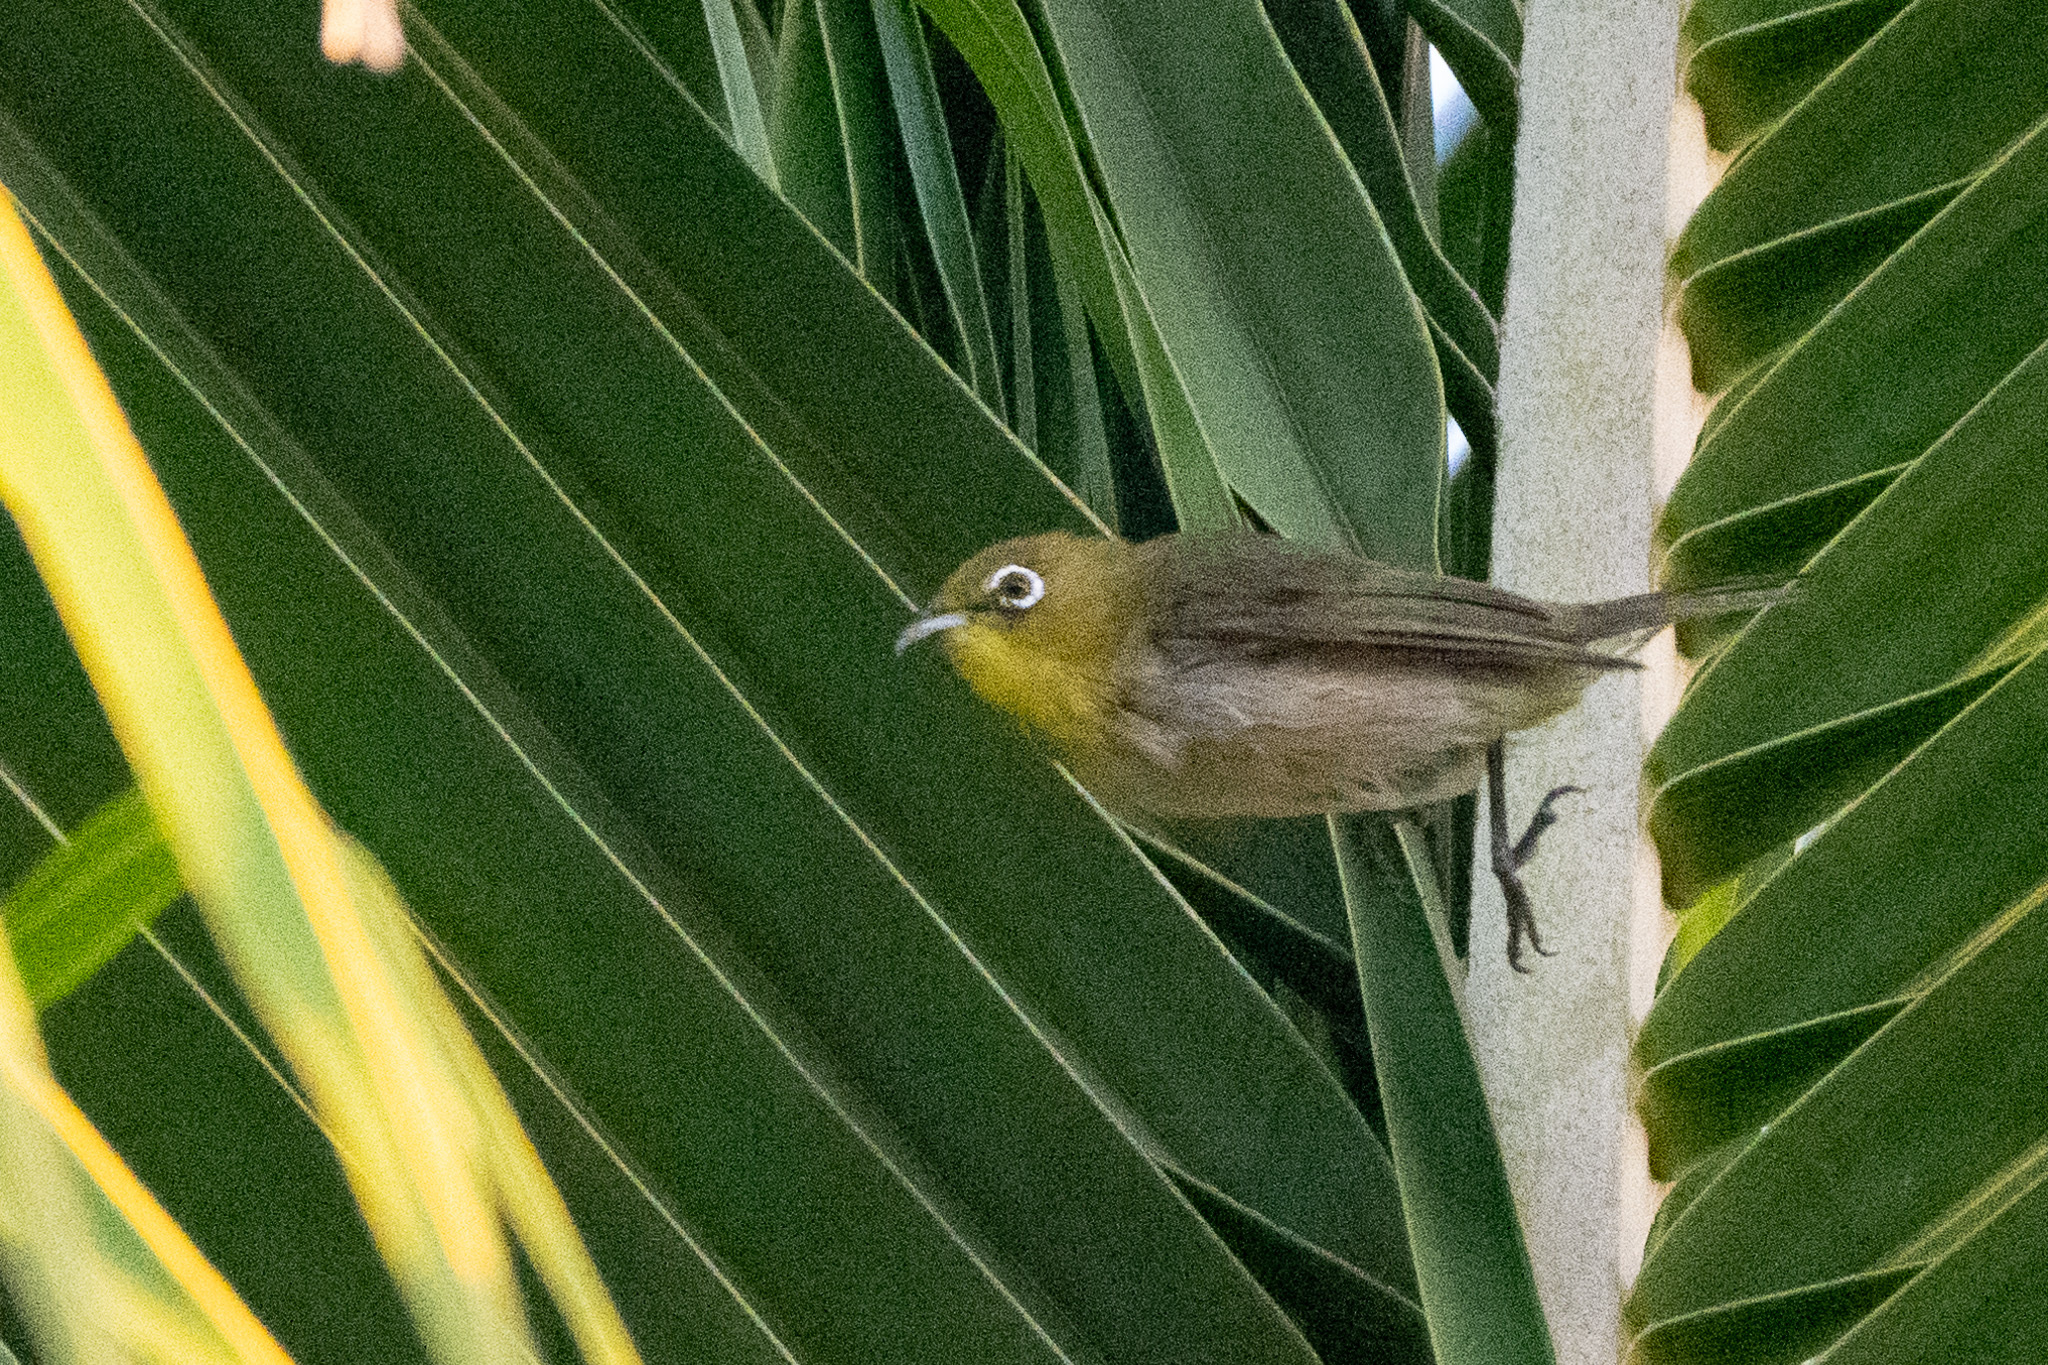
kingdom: Animalia
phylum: Chordata
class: Aves
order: Passeriformes
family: Zosteropidae
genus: Zosterops
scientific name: Zosterops japonicus
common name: Japanese white-eye
